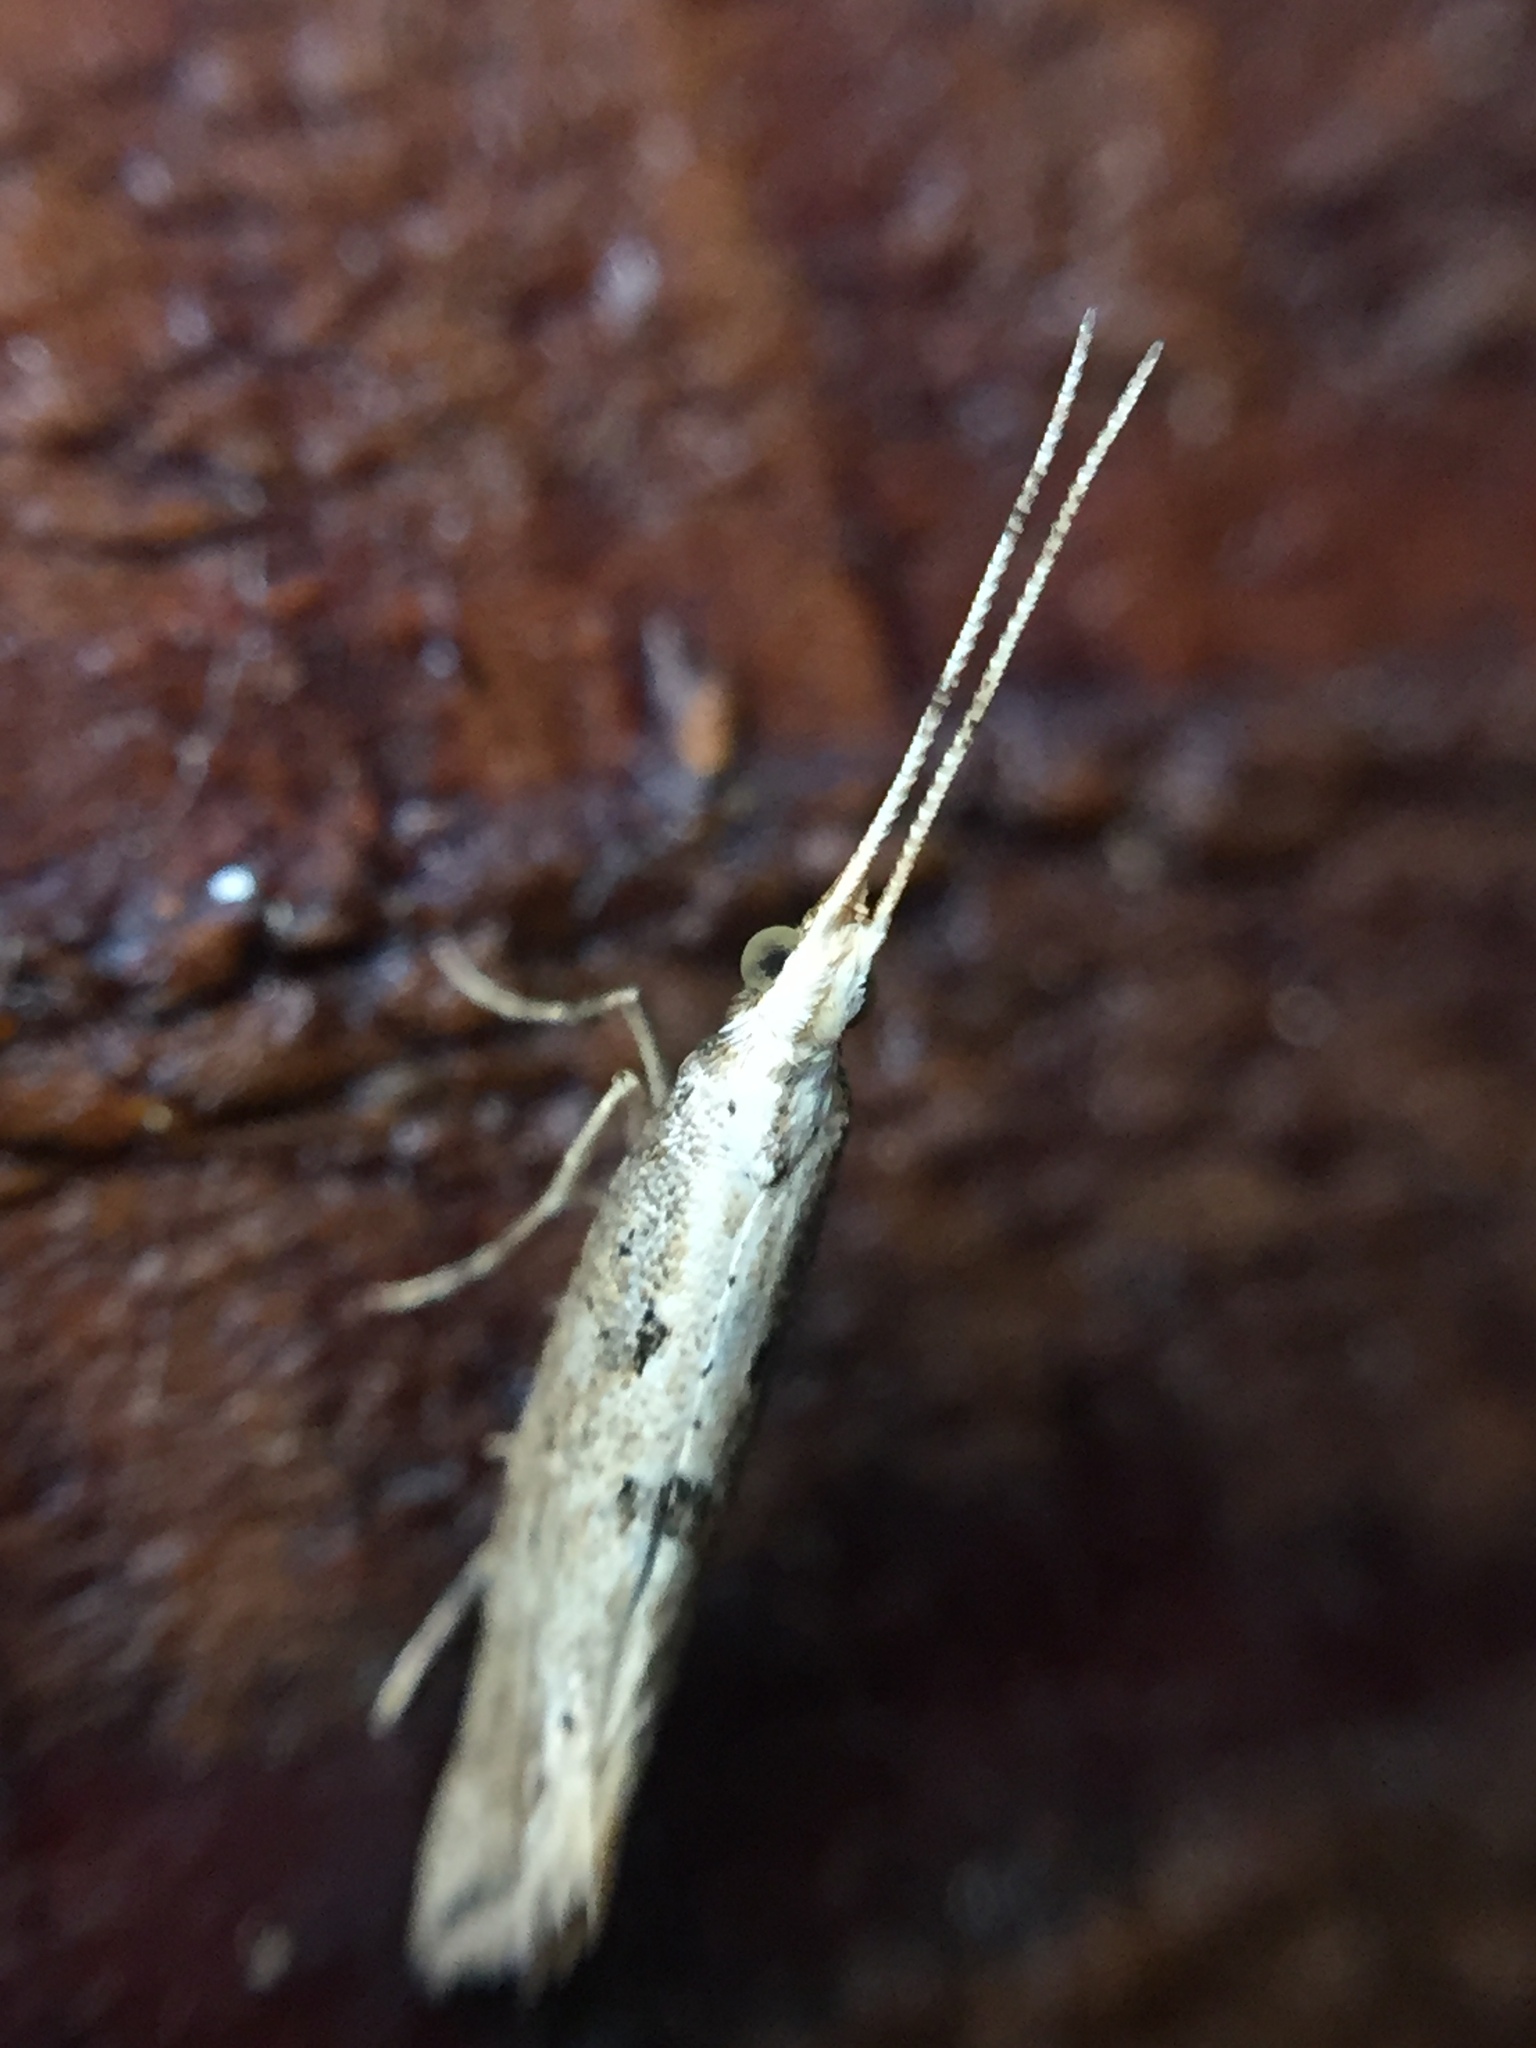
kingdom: Animalia
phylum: Arthropoda
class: Insecta
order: Lepidoptera
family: Plutellidae
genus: Leuroperna
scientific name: Leuroperna sera
